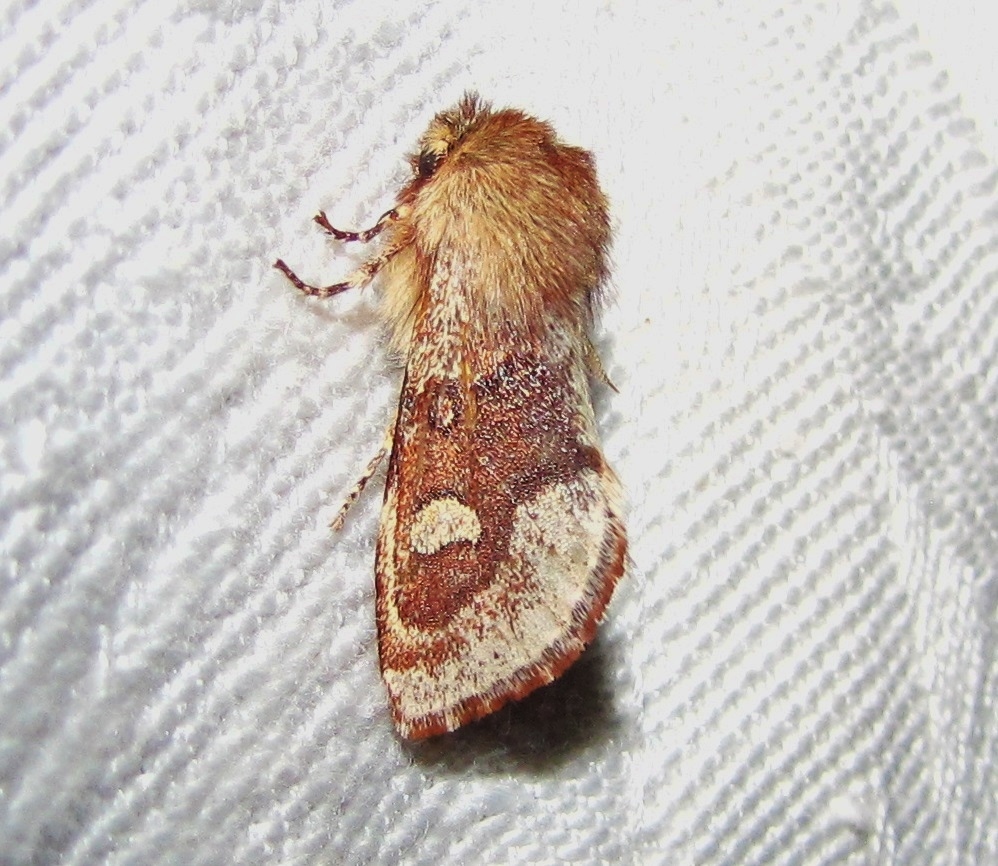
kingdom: Animalia
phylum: Arthropoda
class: Insecta
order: Lepidoptera
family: Noctuidae
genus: Psaphida
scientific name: Psaphida styracis
